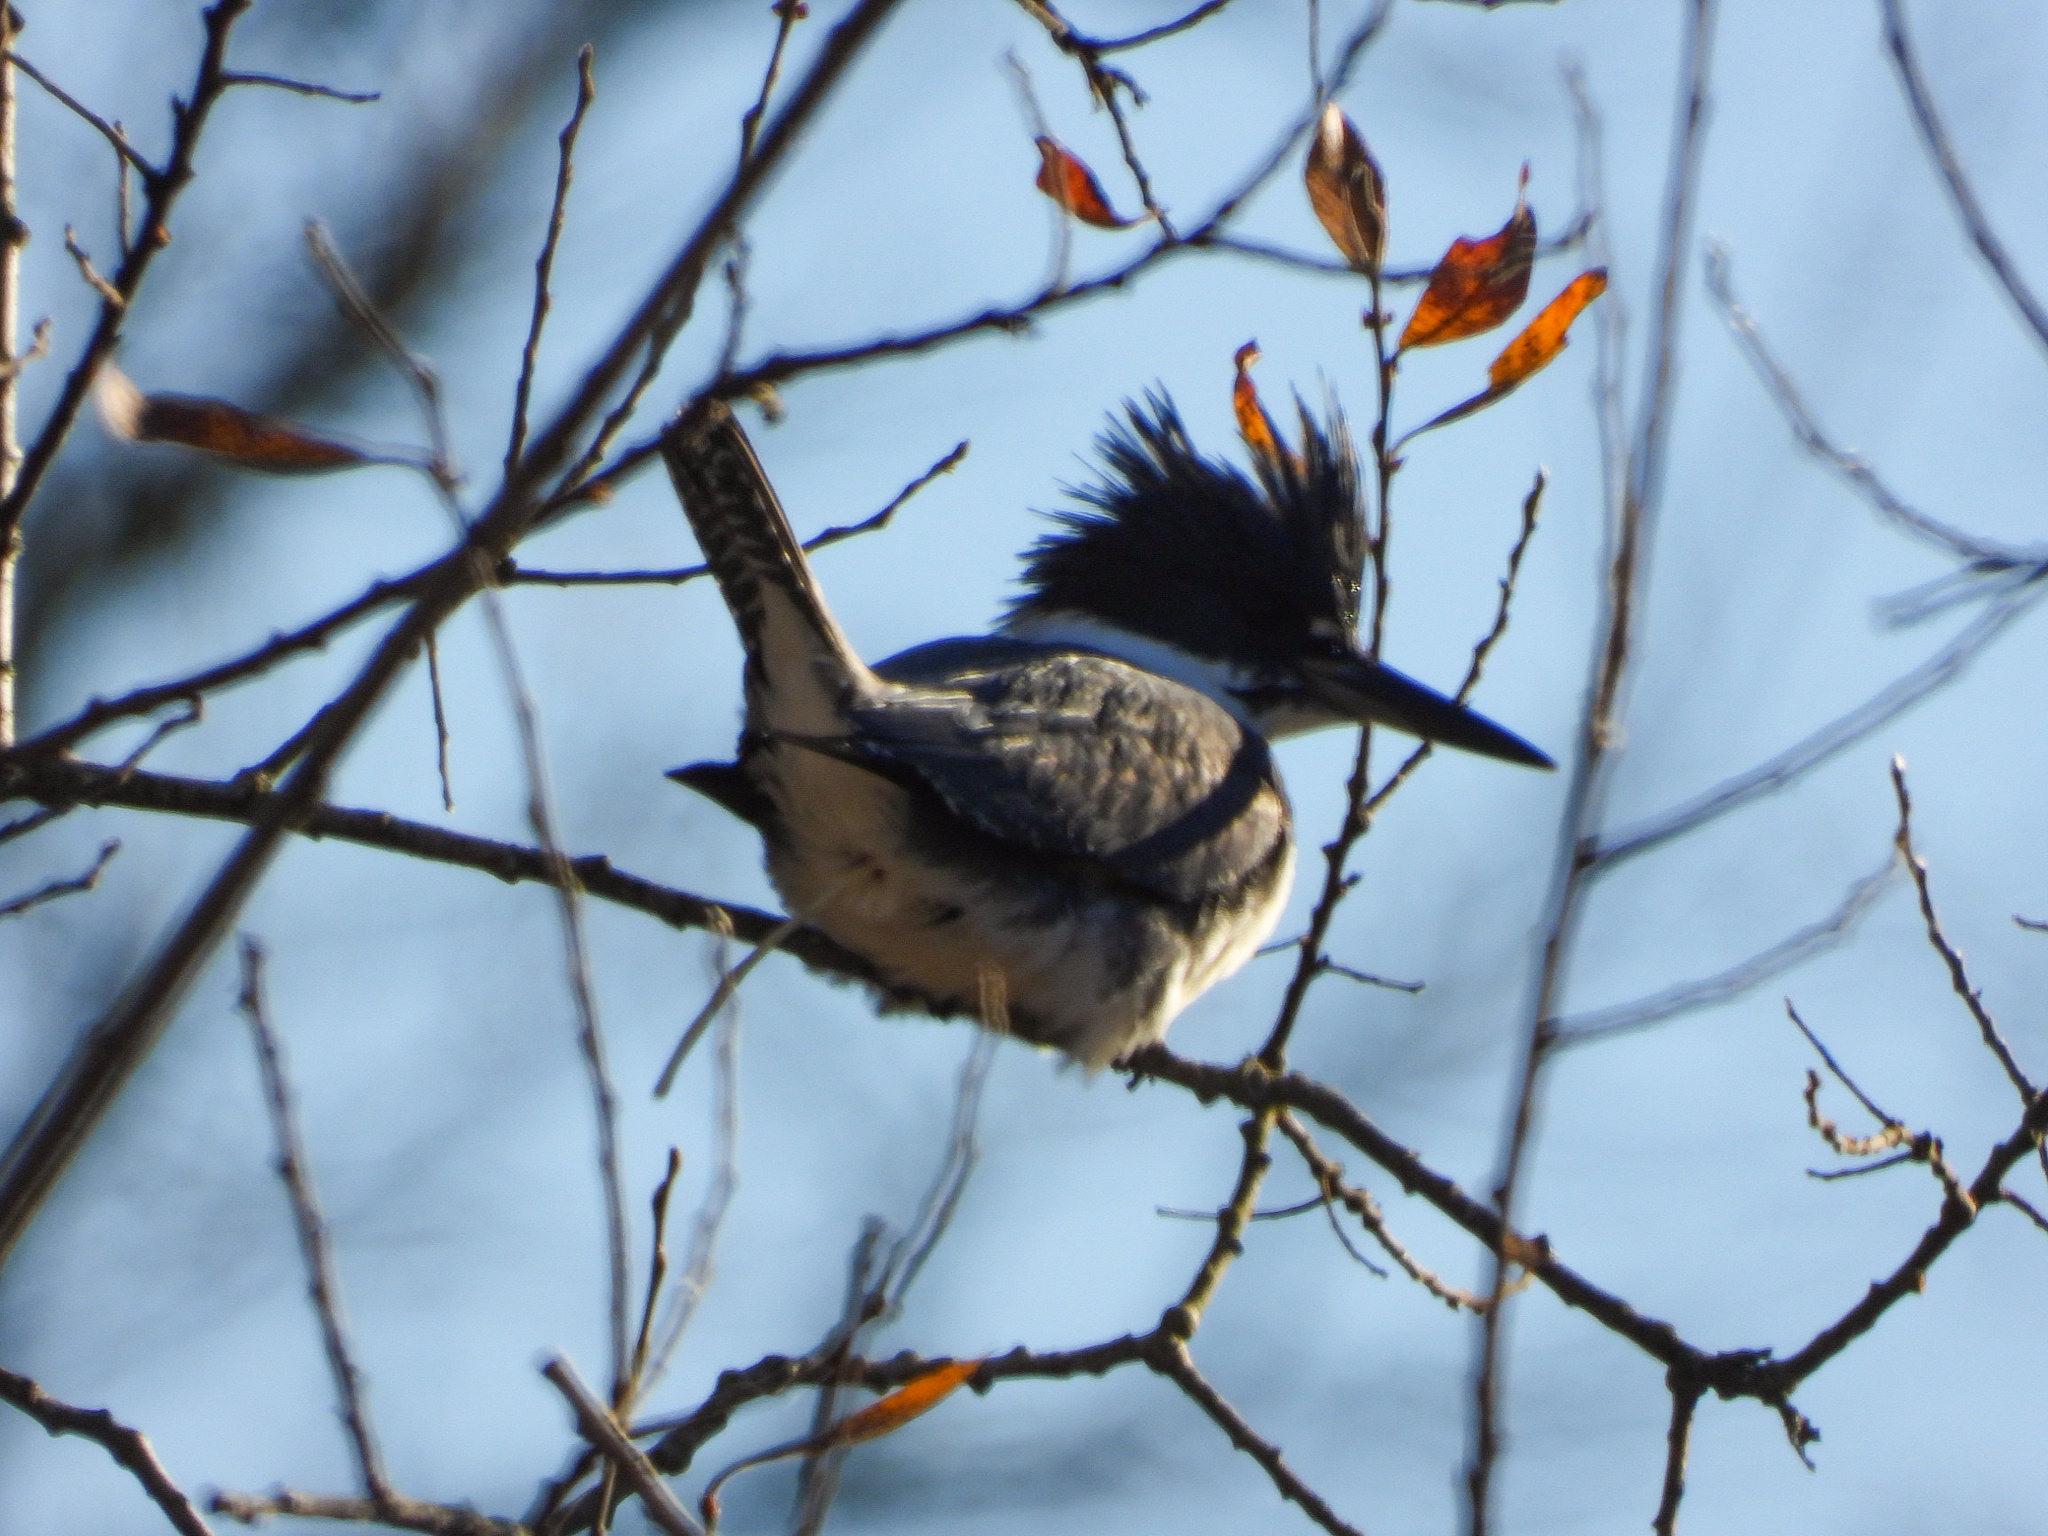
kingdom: Animalia
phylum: Chordata
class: Aves
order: Coraciiformes
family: Alcedinidae
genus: Megaceryle
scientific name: Megaceryle alcyon
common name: Belted kingfisher
